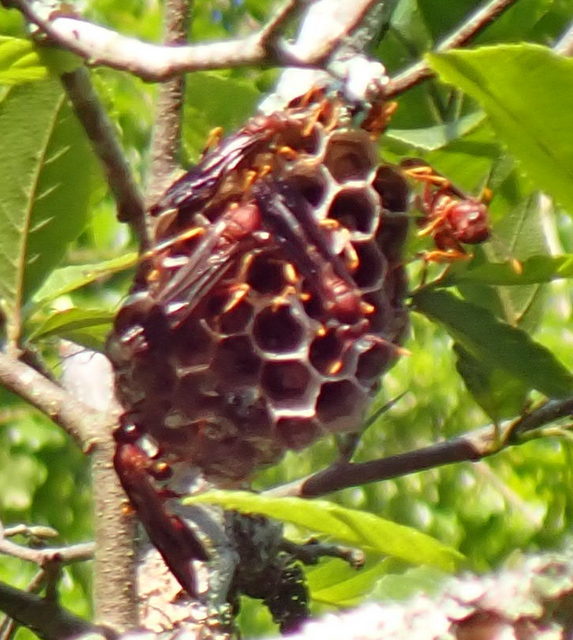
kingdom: Animalia
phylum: Arthropoda
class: Insecta
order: Hymenoptera
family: Eumenidae
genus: Polistes
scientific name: Polistes annularis
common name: Ringed paper wasp
